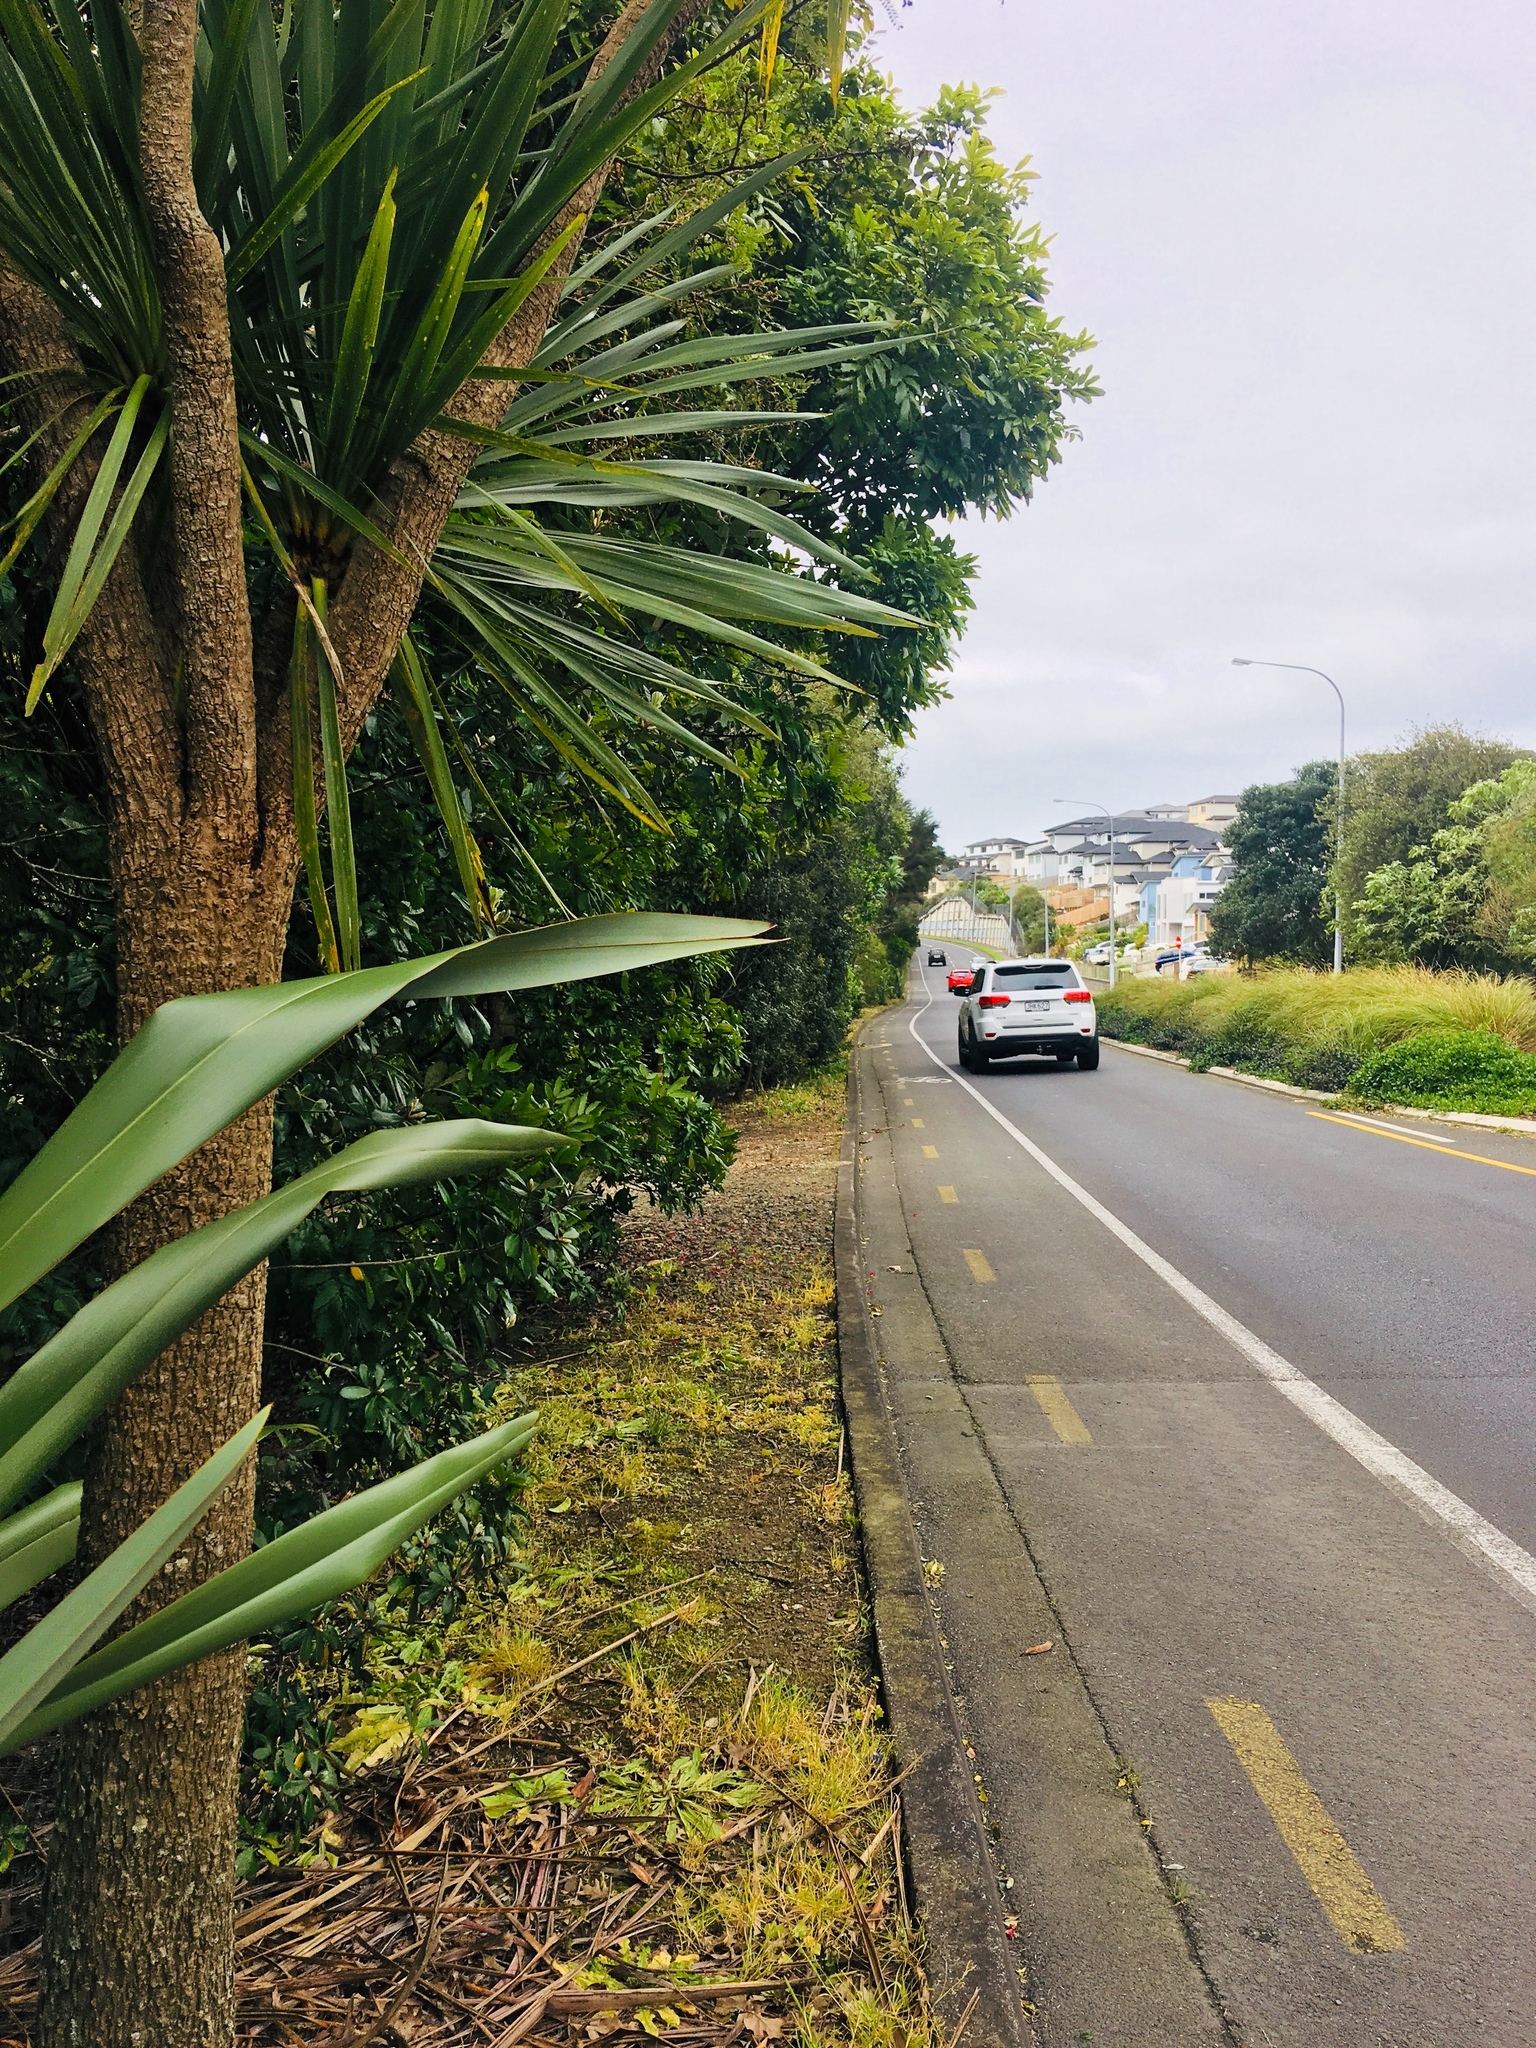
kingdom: Plantae
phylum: Tracheophyta
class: Liliopsida
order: Asparagales
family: Asparagaceae
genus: Cordyline
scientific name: Cordyline australis
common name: Cabbage-palm
